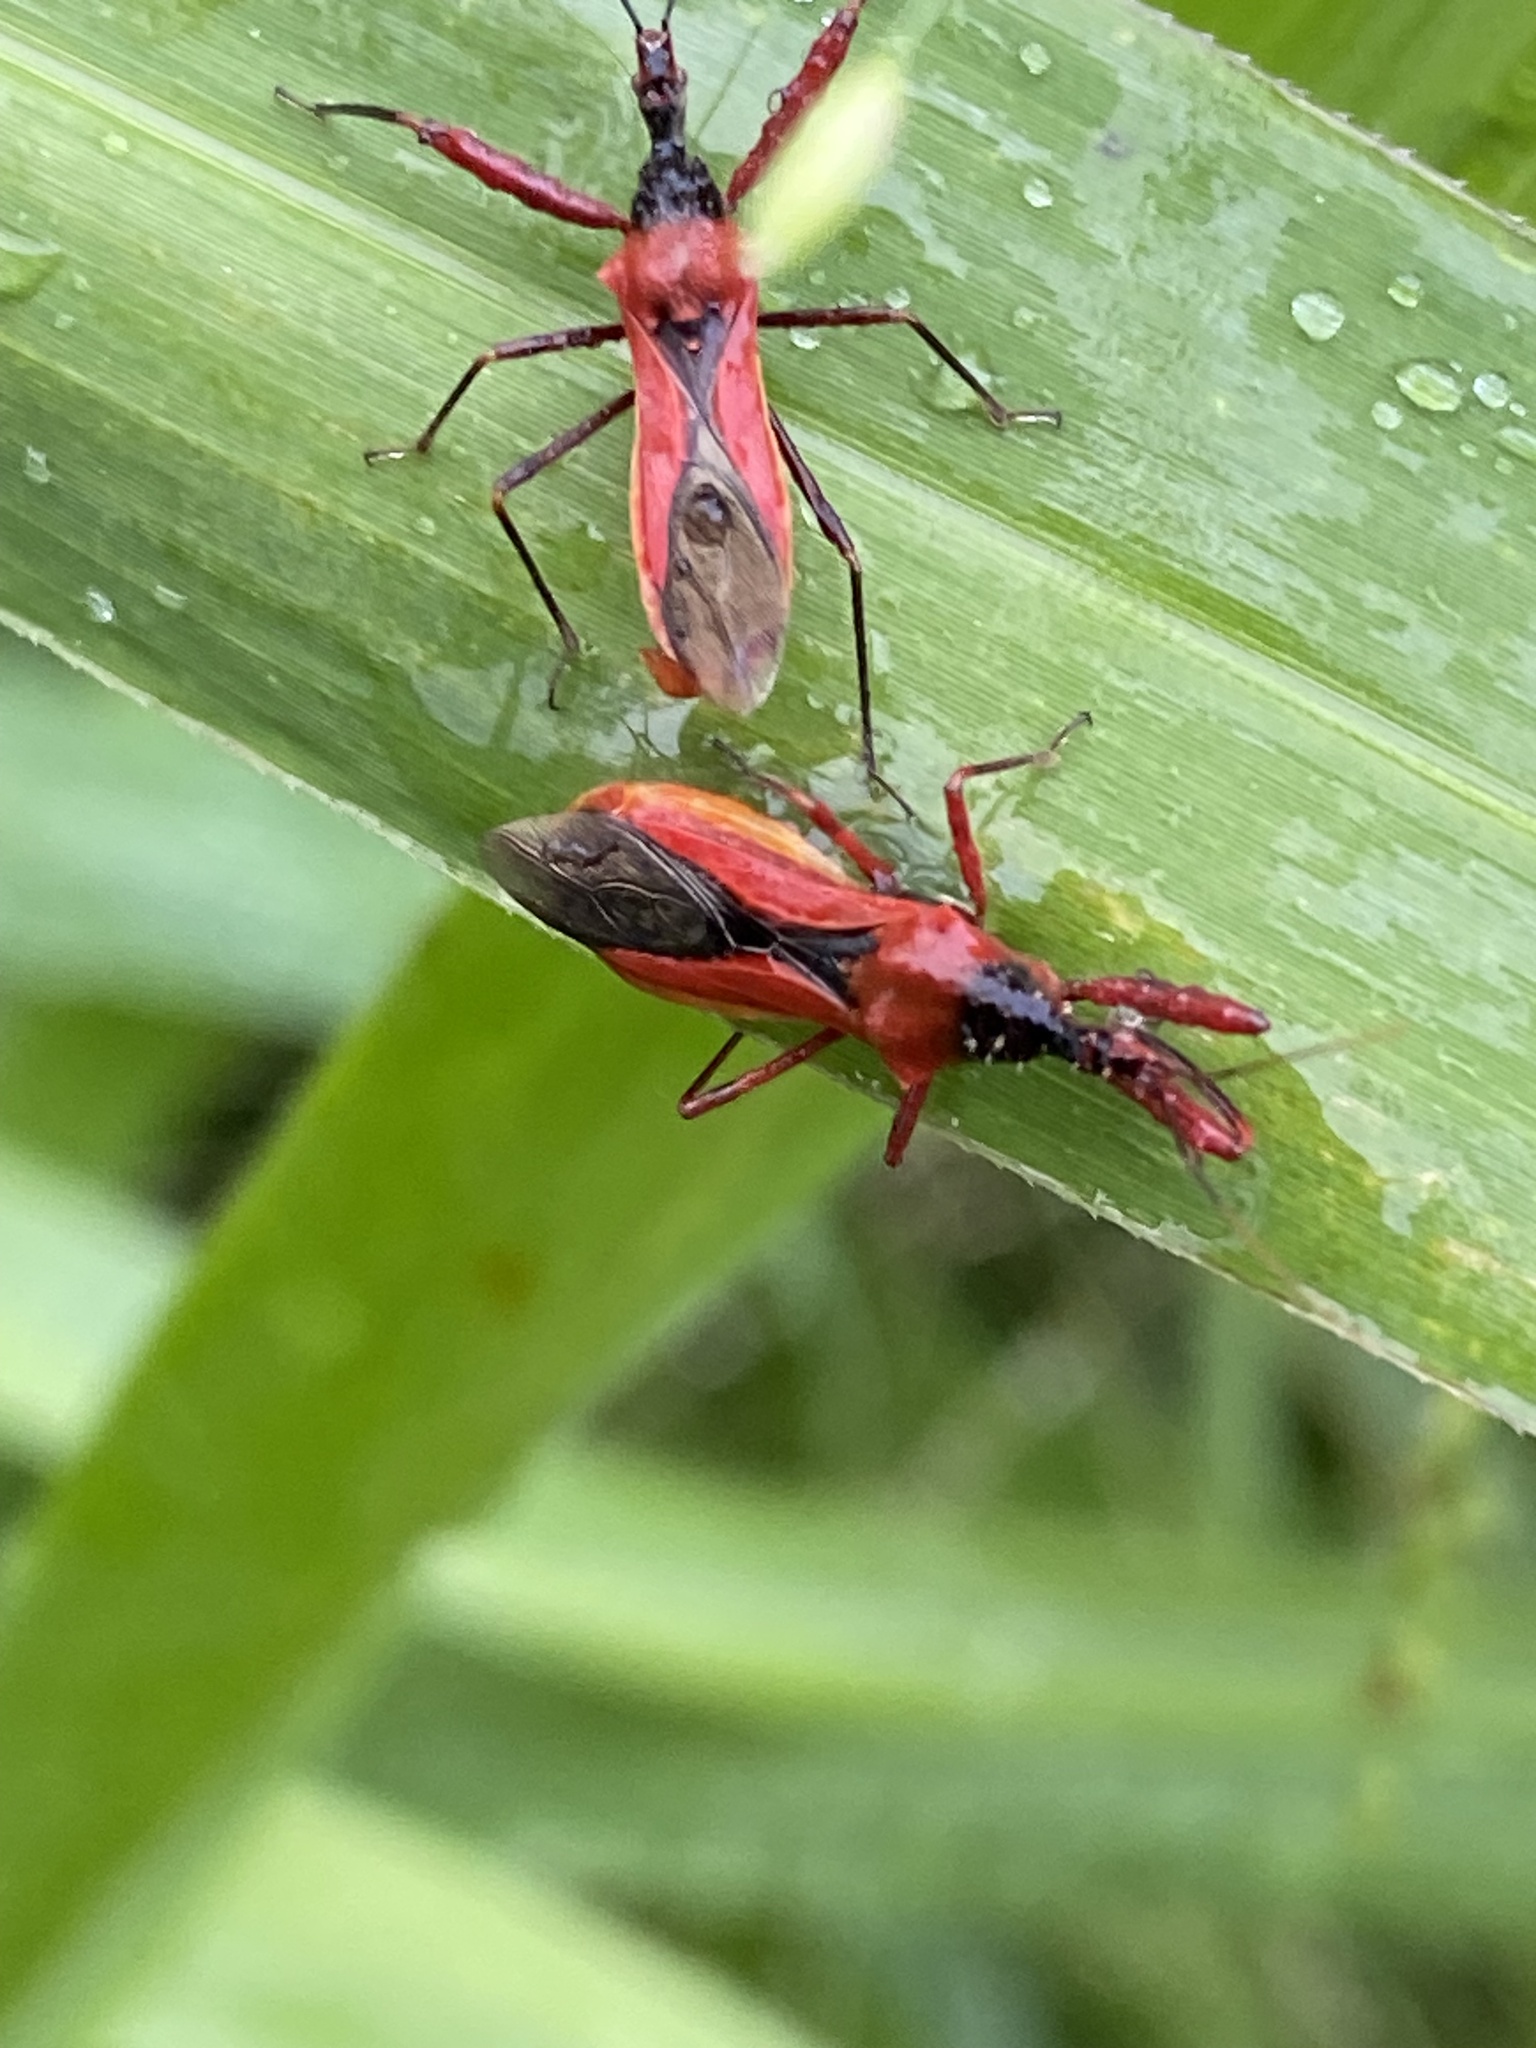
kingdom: Animalia
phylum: Arthropoda
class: Insecta
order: Hemiptera
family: Reduviidae
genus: Scipinia
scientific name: Scipinia arenacea
